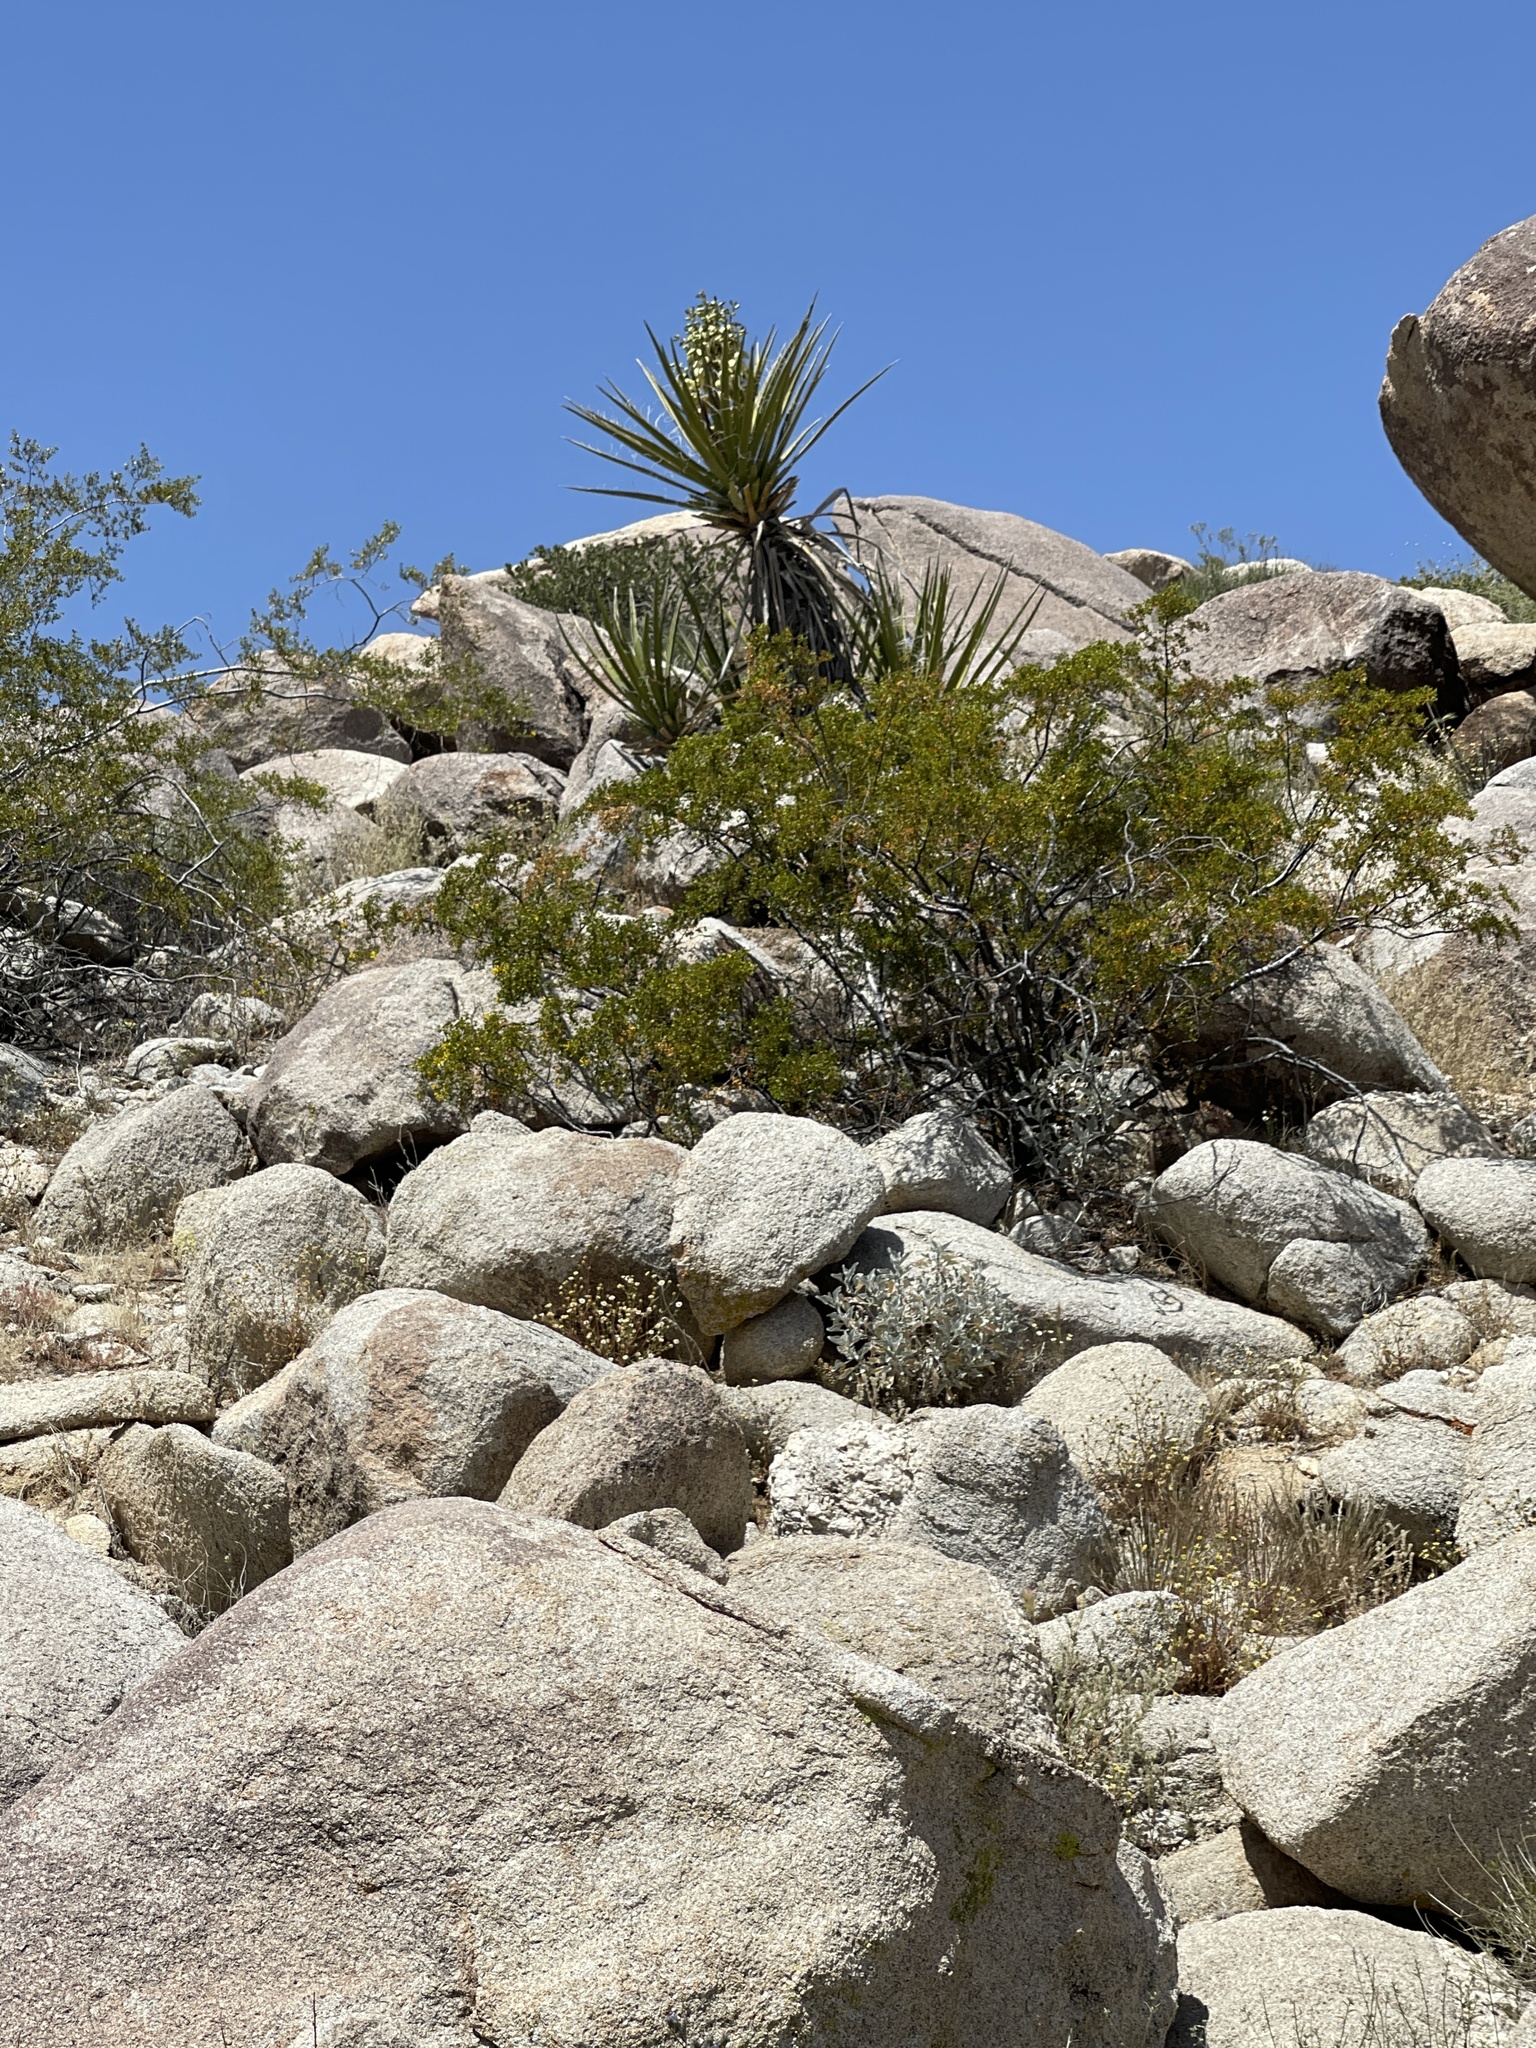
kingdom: Plantae
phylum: Tracheophyta
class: Liliopsida
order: Asparagales
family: Asparagaceae
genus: Yucca
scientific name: Yucca schidigera
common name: Mojave yucca
